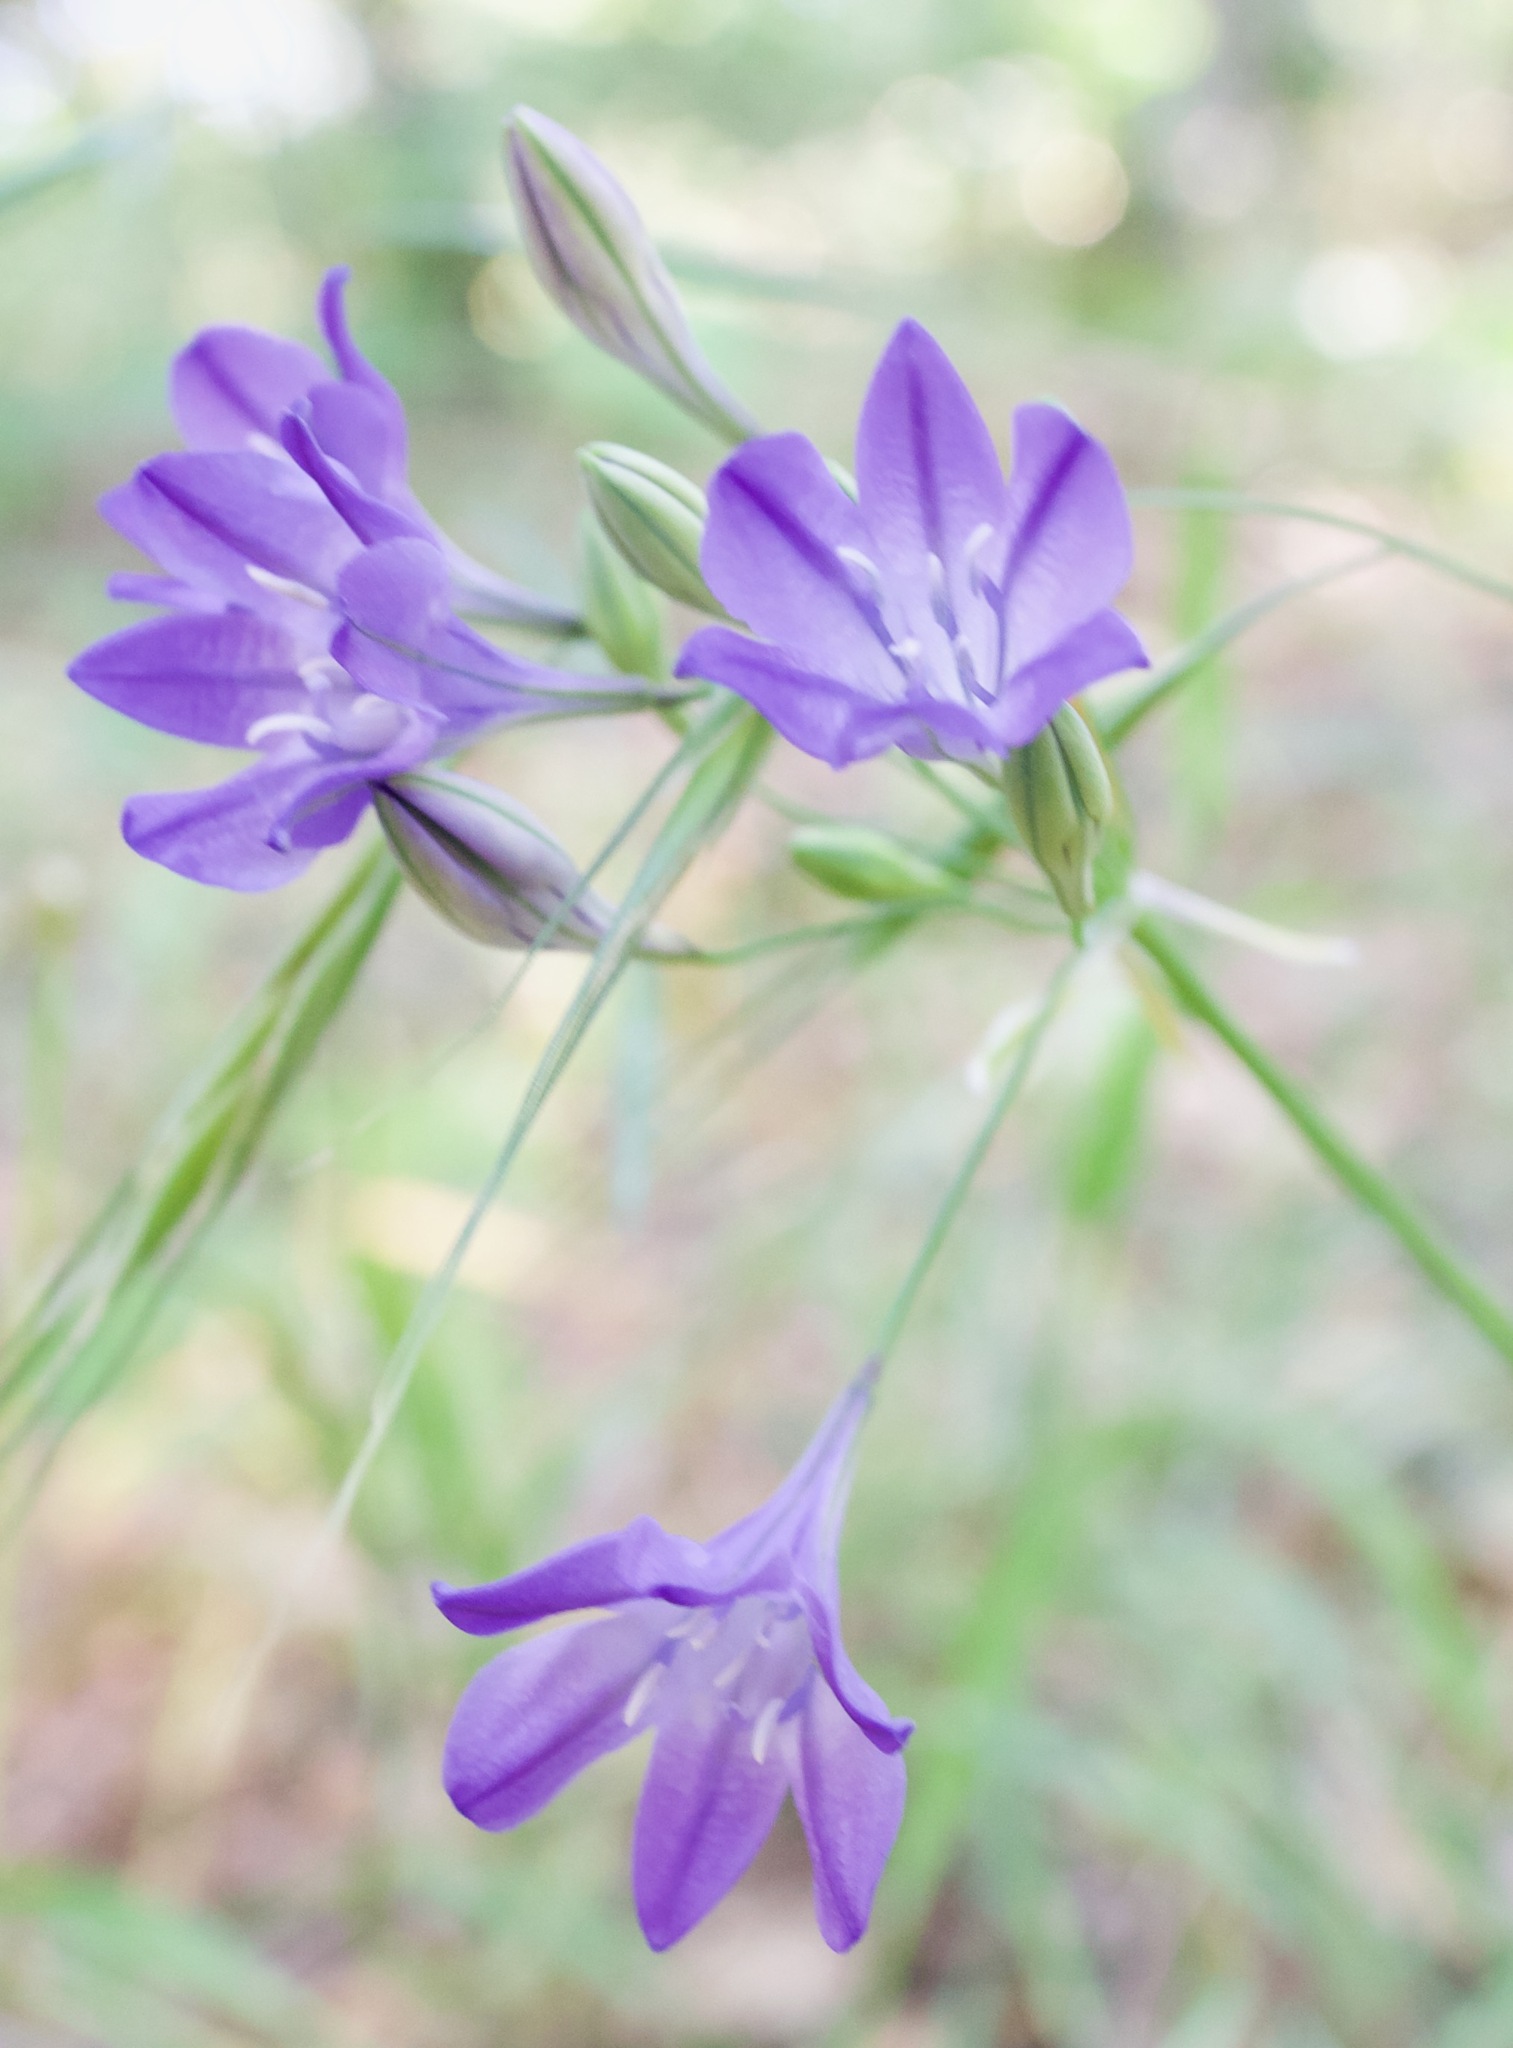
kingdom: Plantae
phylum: Tracheophyta
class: Liliopsida
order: Asparagales
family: Asparagaceae
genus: Triteleia
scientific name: Triteleia laxa
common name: Triplet-lily
